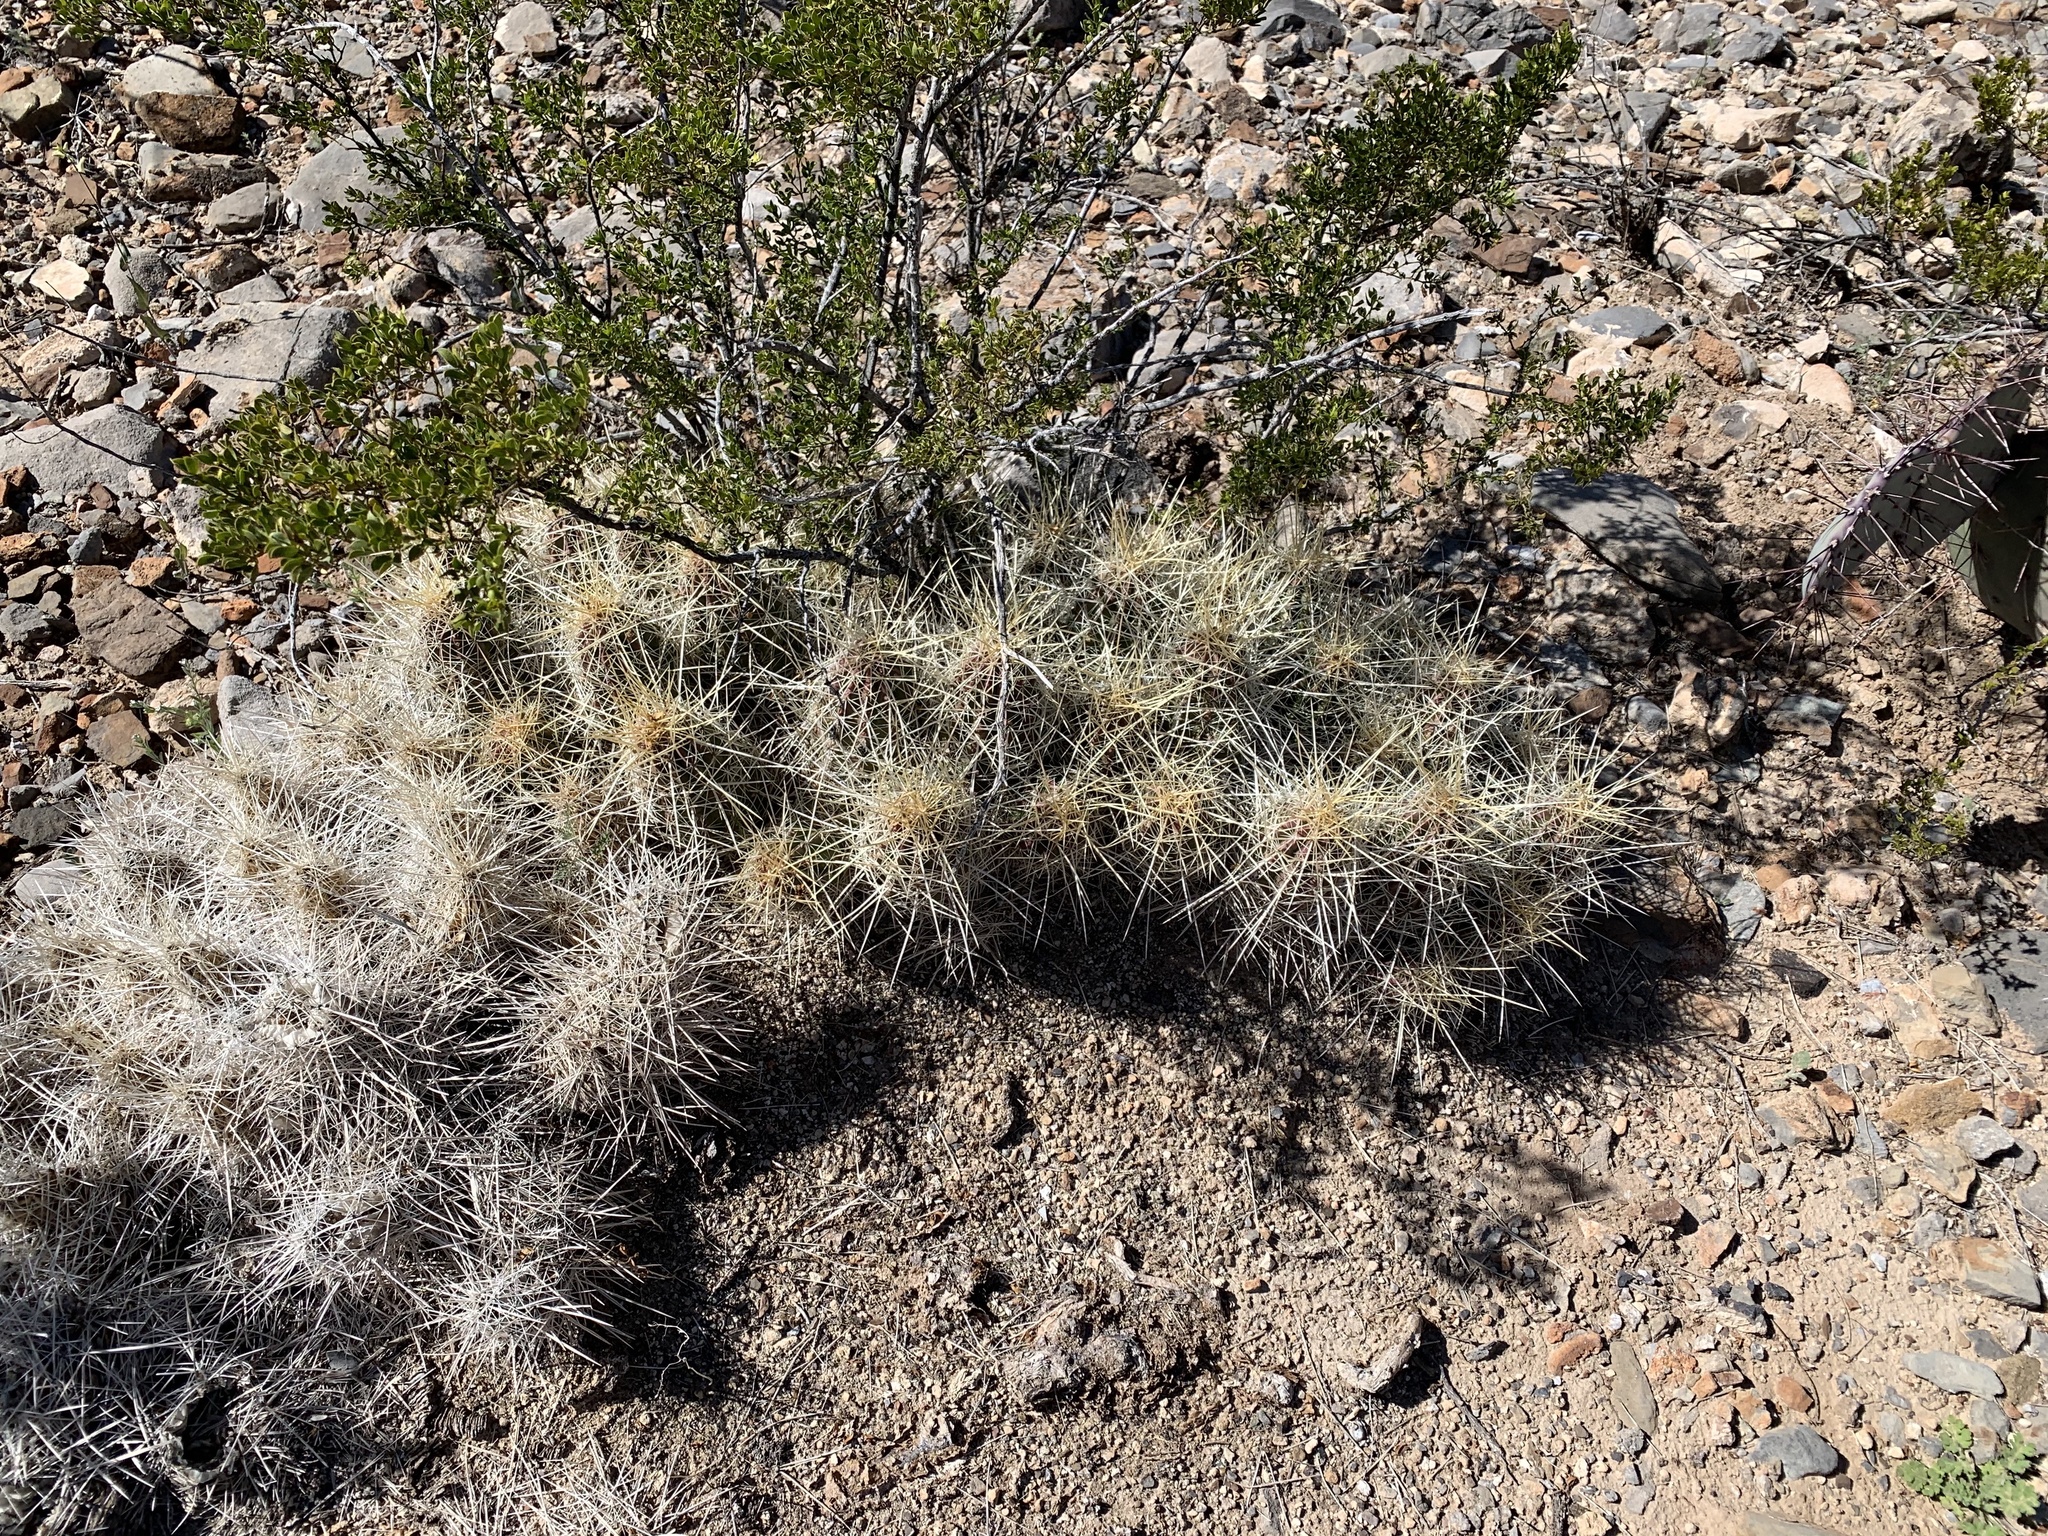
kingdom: Plantae
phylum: Tracheophyta
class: Magnoliopsida
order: Caryophyllales
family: Cactaceae
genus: Echinocereus
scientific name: Echinocereus stramineus
